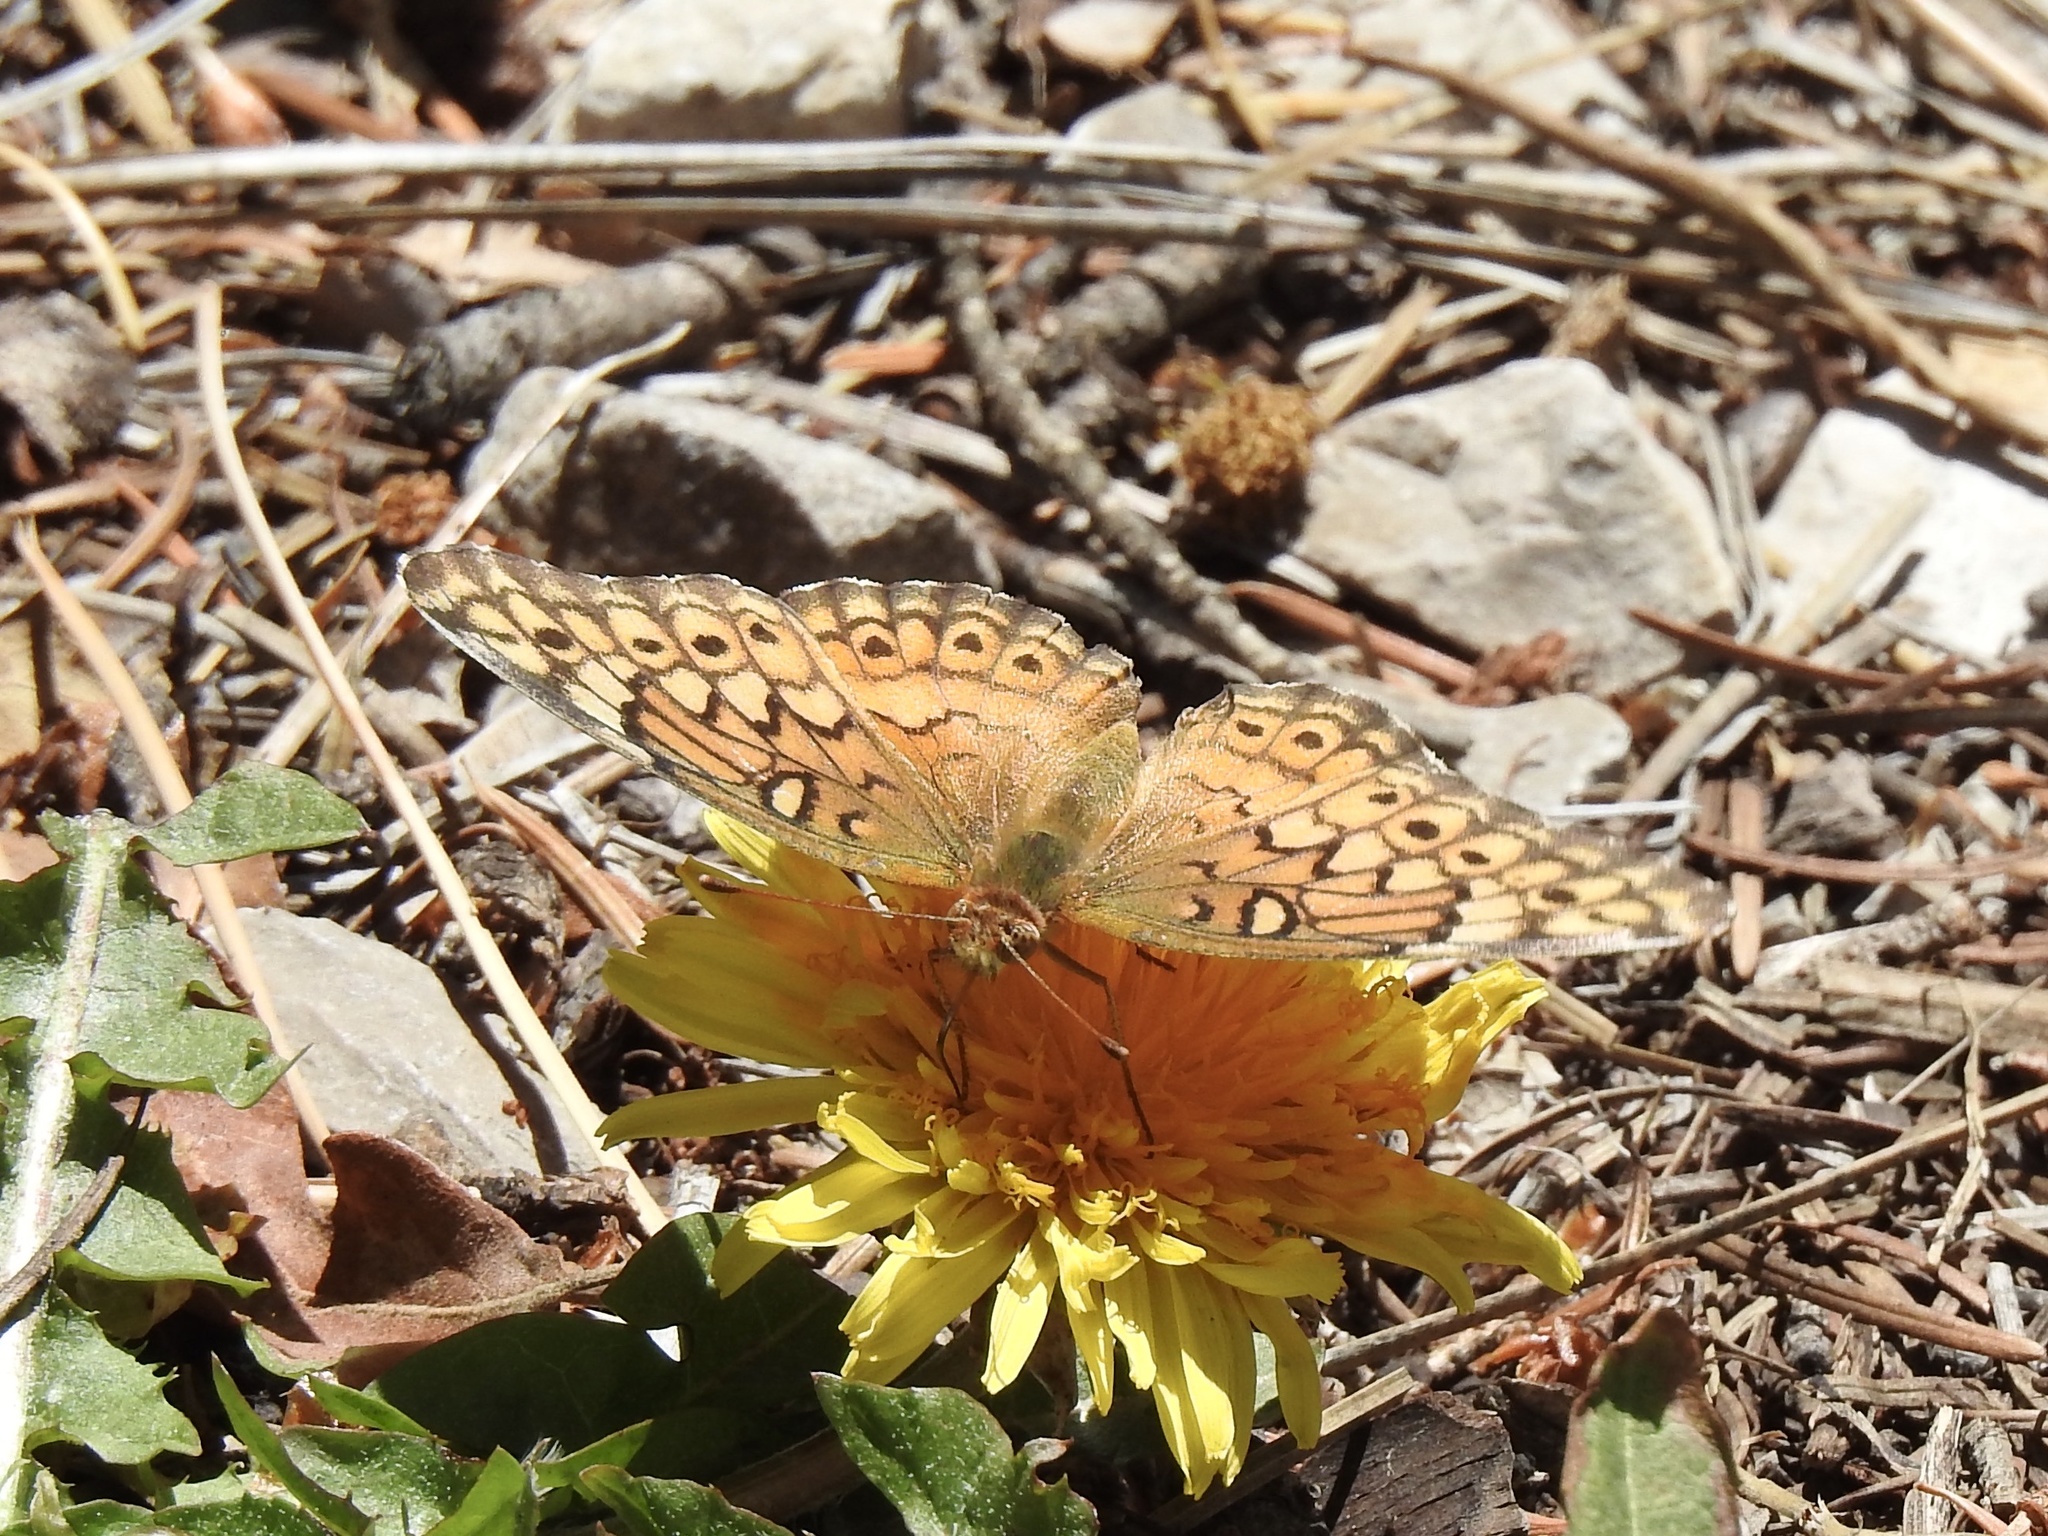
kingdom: Animalia
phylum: Arthropoda
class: Insecta
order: Lepidoptera
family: Nymphalidae
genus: Euptoieta
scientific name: Euptoieta claudia
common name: Variegated fritillary
